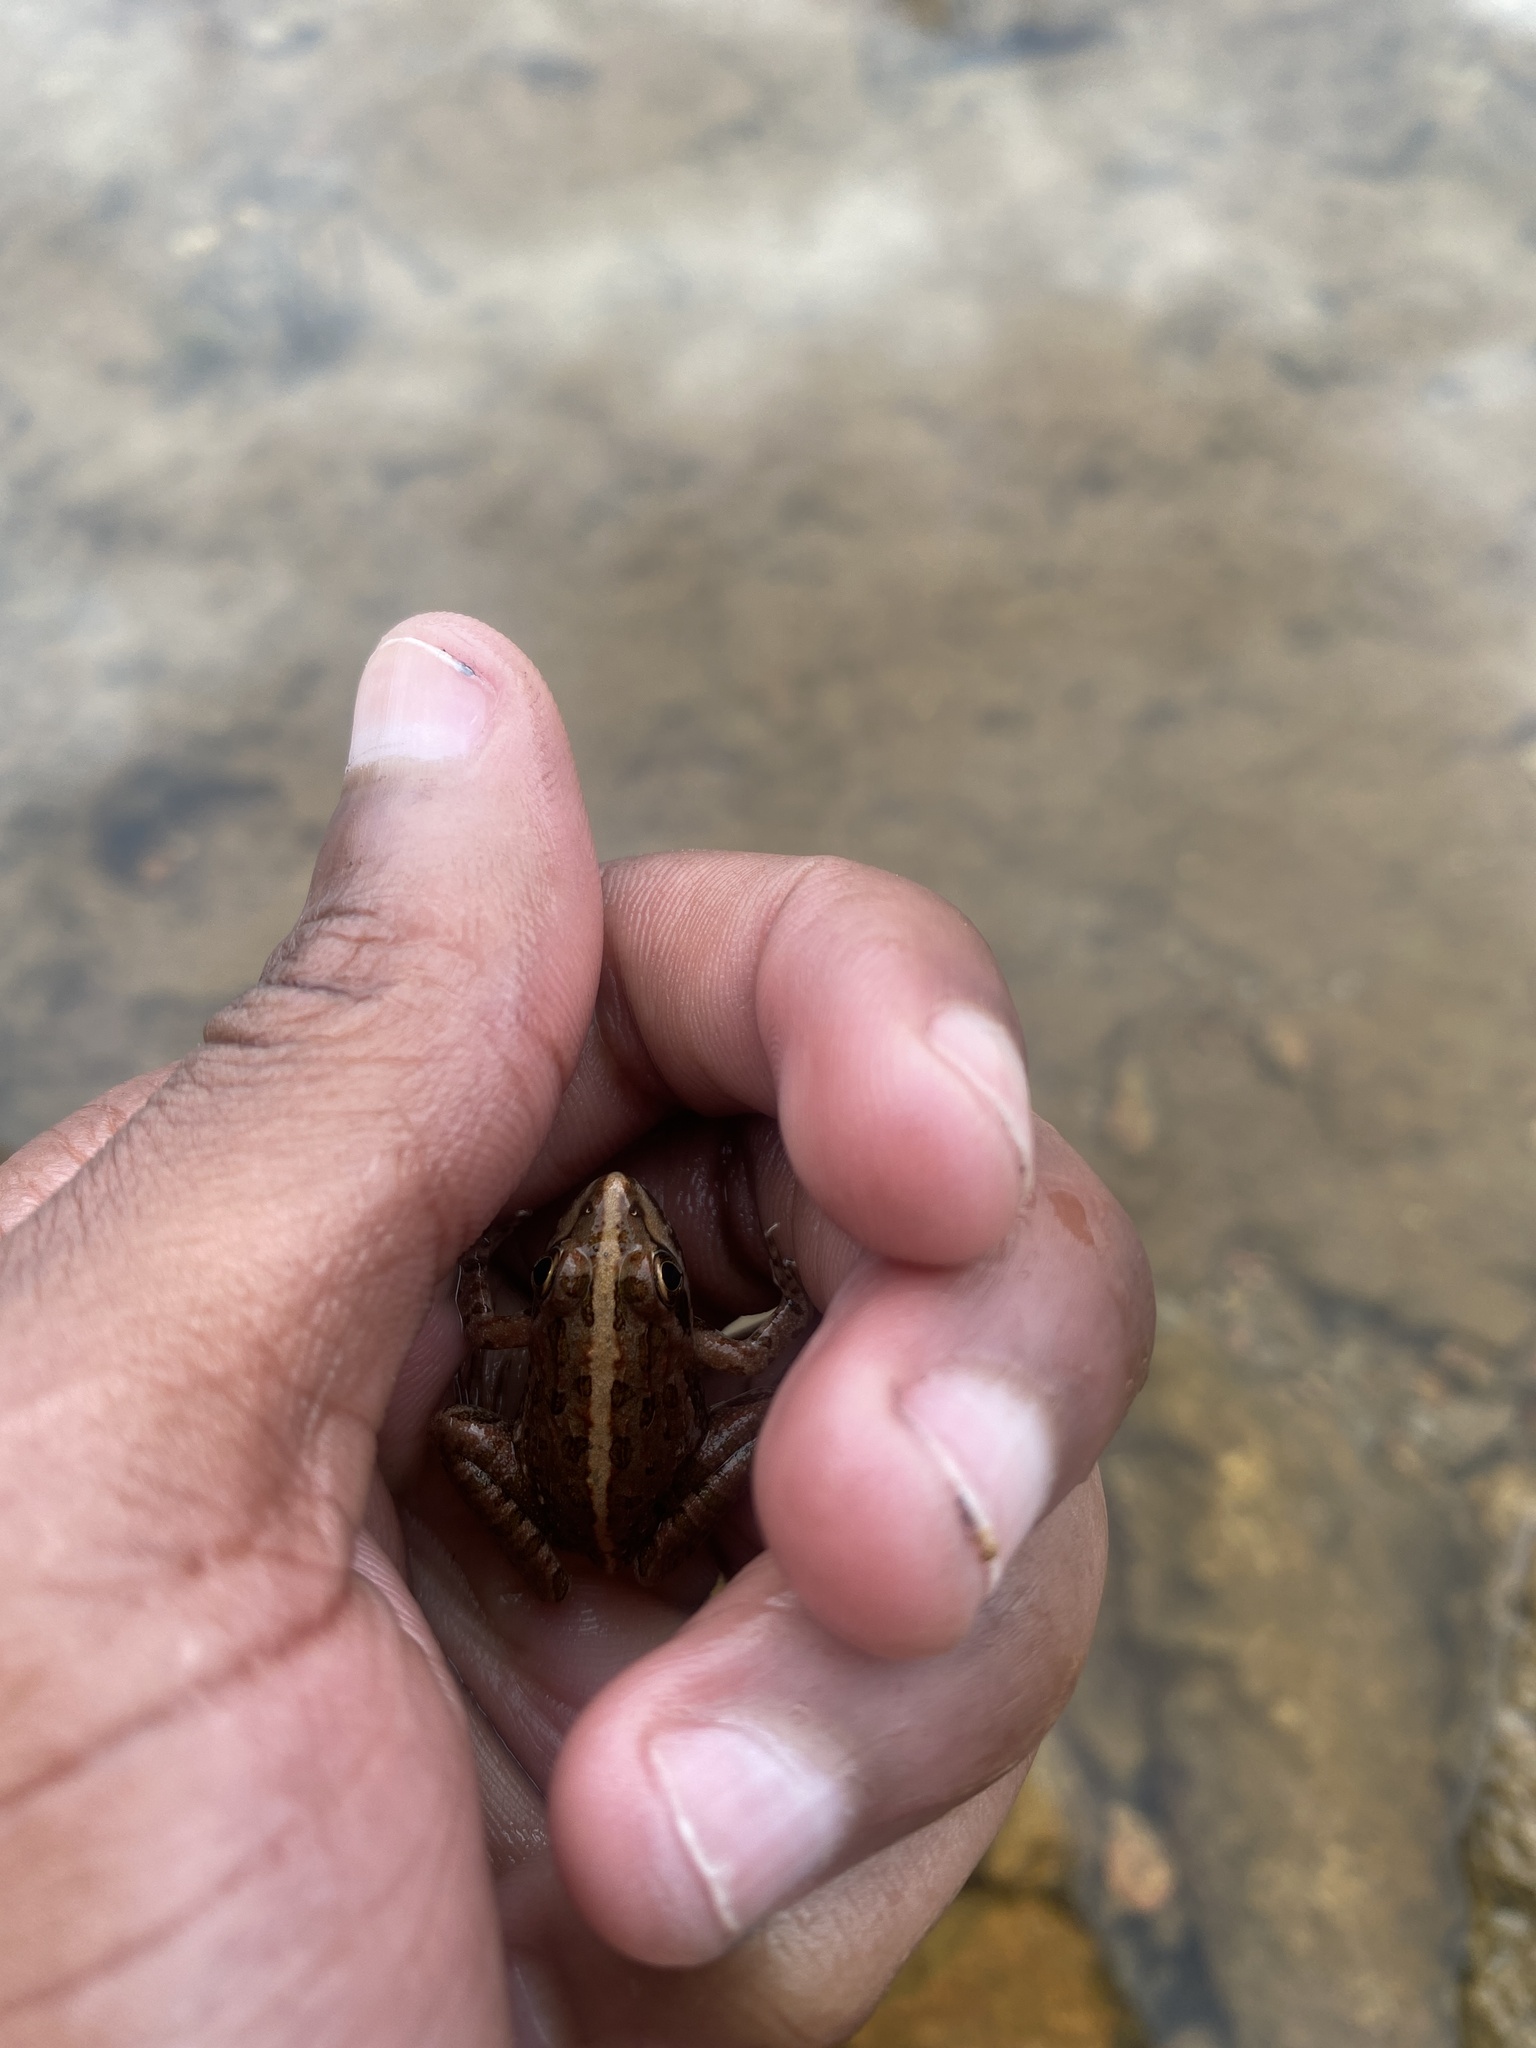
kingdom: Animalia
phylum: Chordata
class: Amphibia
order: Anura
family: Pyxicephalidae
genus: Amietia
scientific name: Amietia delalandii
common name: Delalande's river frog
